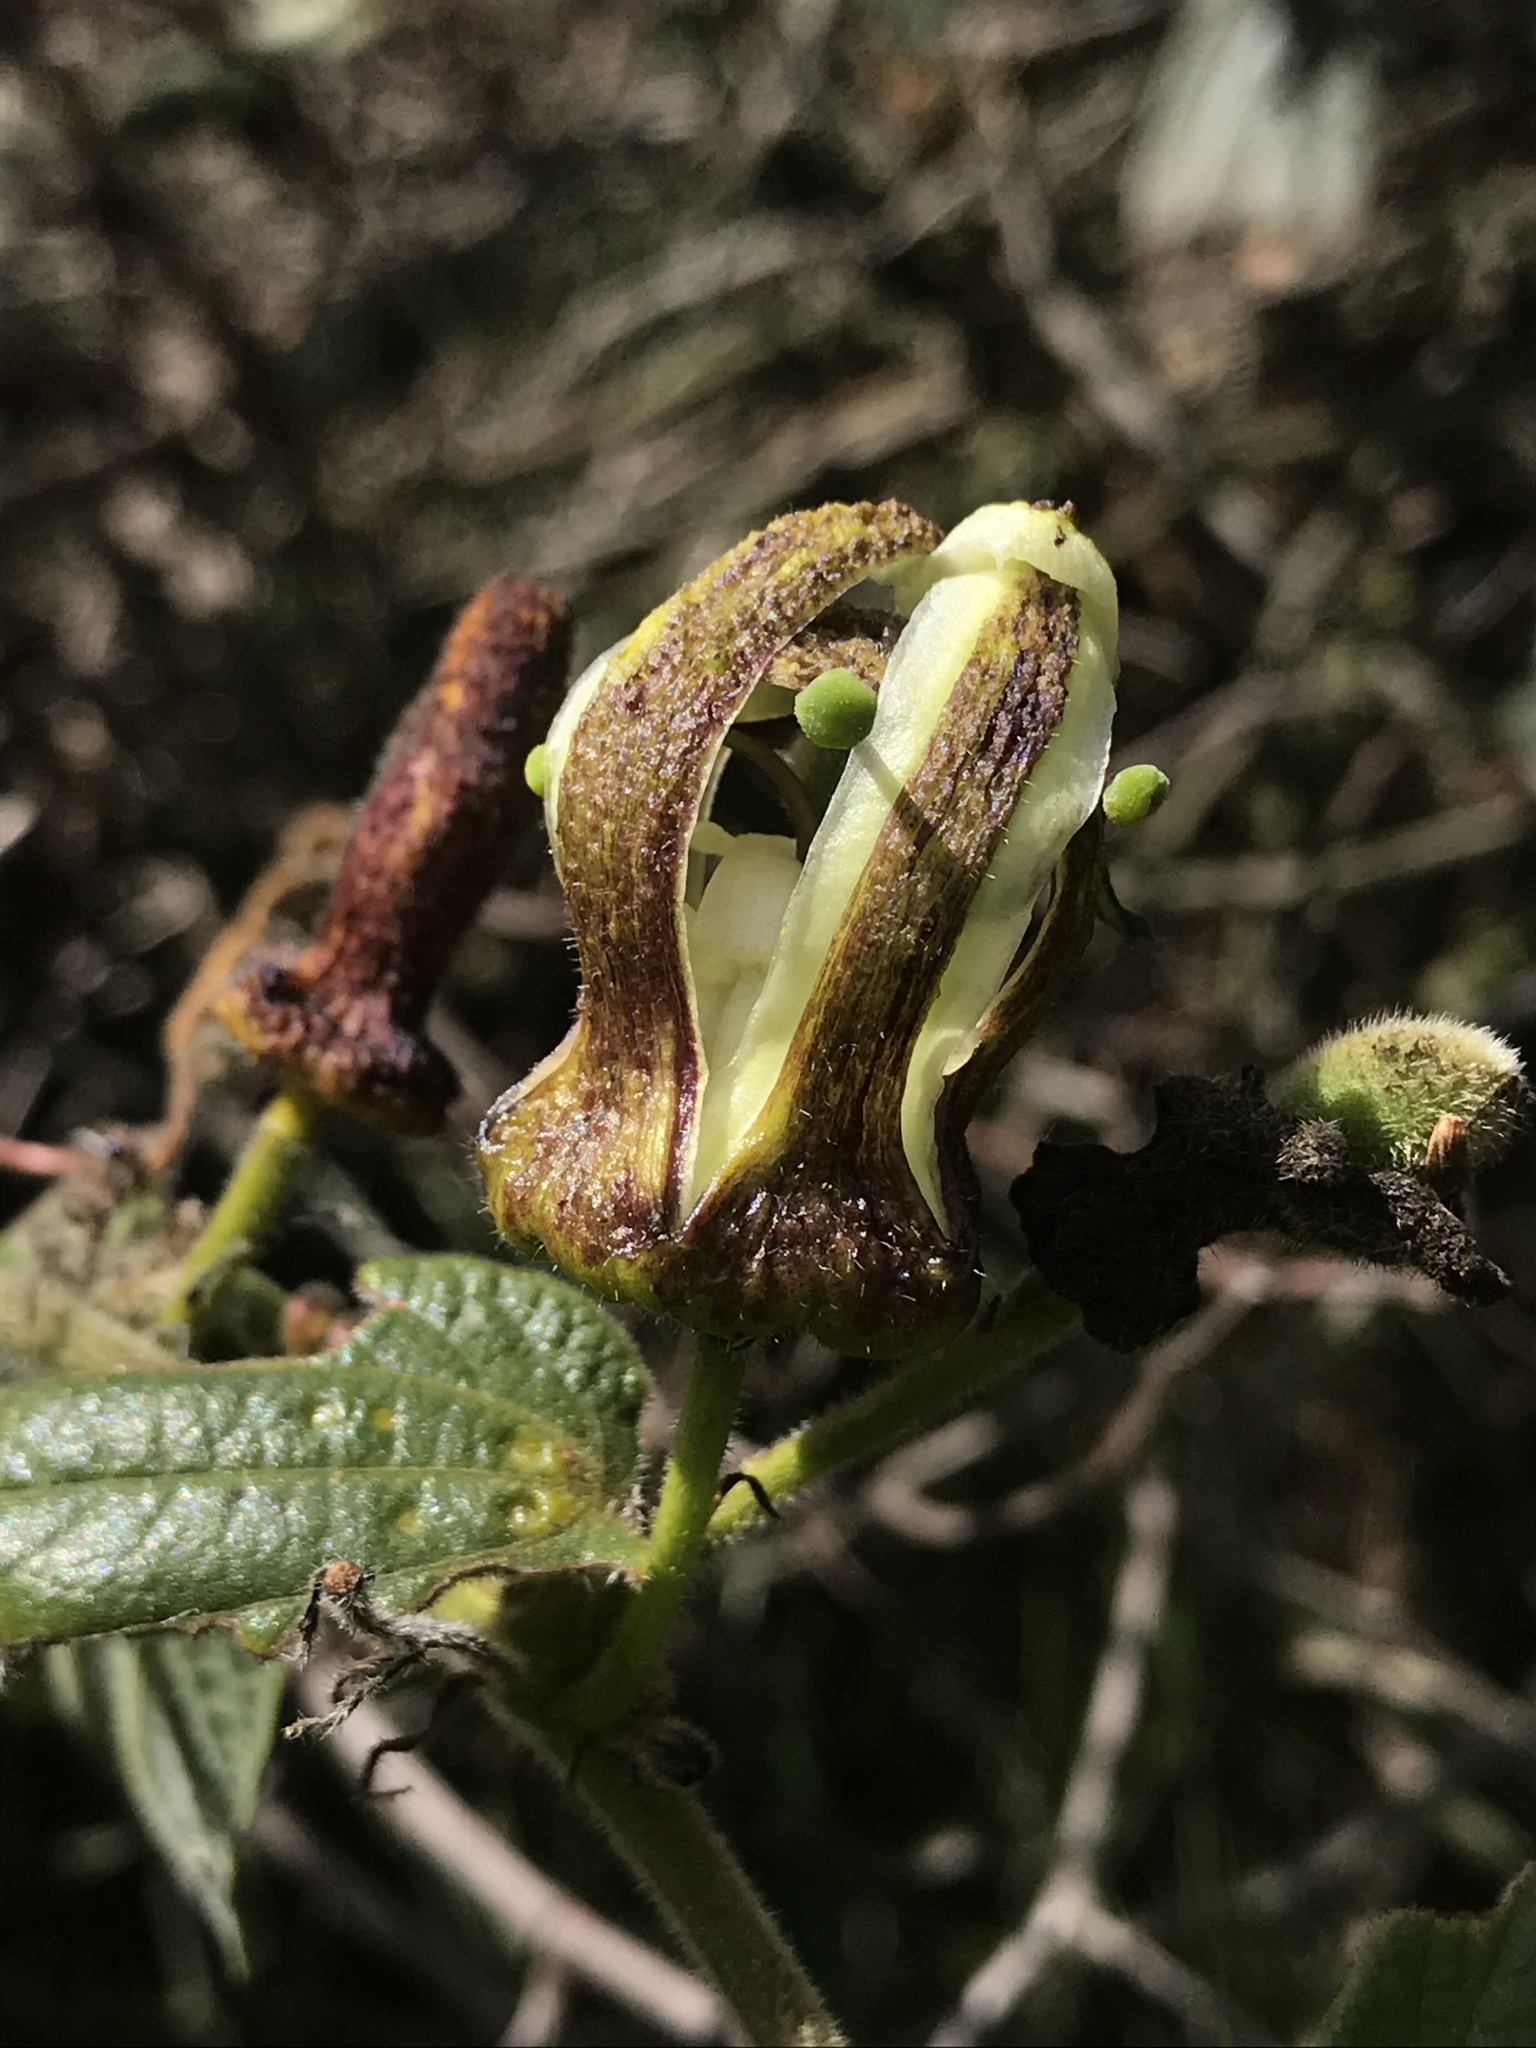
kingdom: Plantae
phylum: Tracheophyta
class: Magnoliopsida
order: Malpighiales
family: Passifloraceae
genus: Passiflora
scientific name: Passiflora bogotensis
